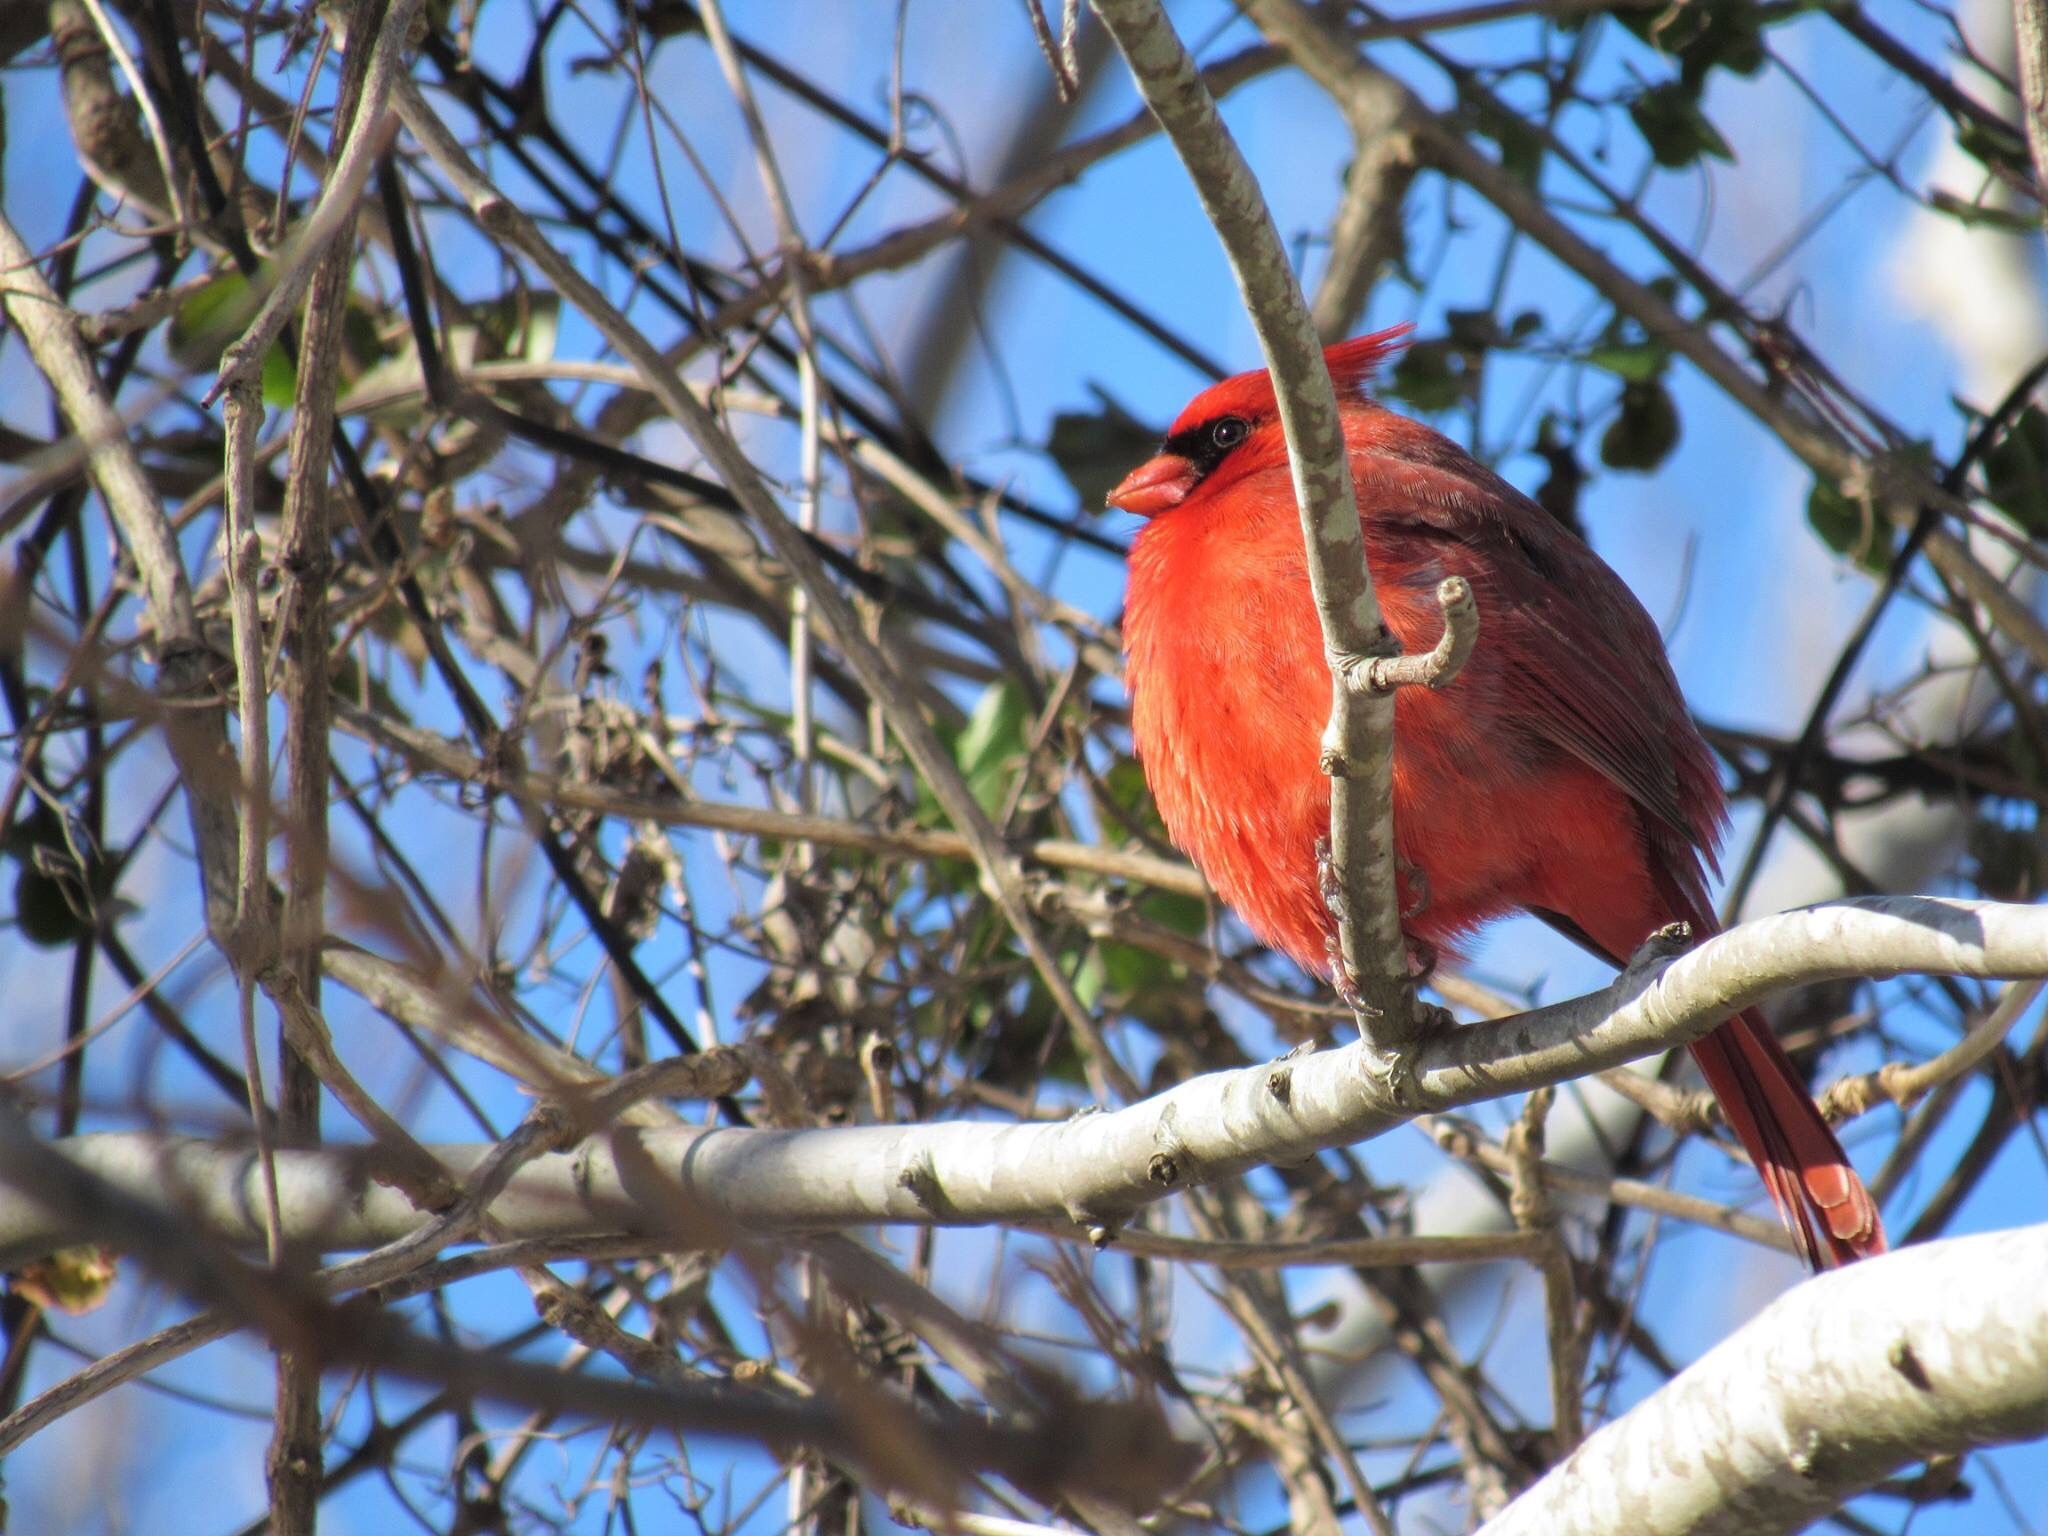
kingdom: Animalia
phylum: Chordata
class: Aves
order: Passeriformes
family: Cardinalidae
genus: Cardinalis
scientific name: Cardinalis cardinalis
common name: Northern cardinal
